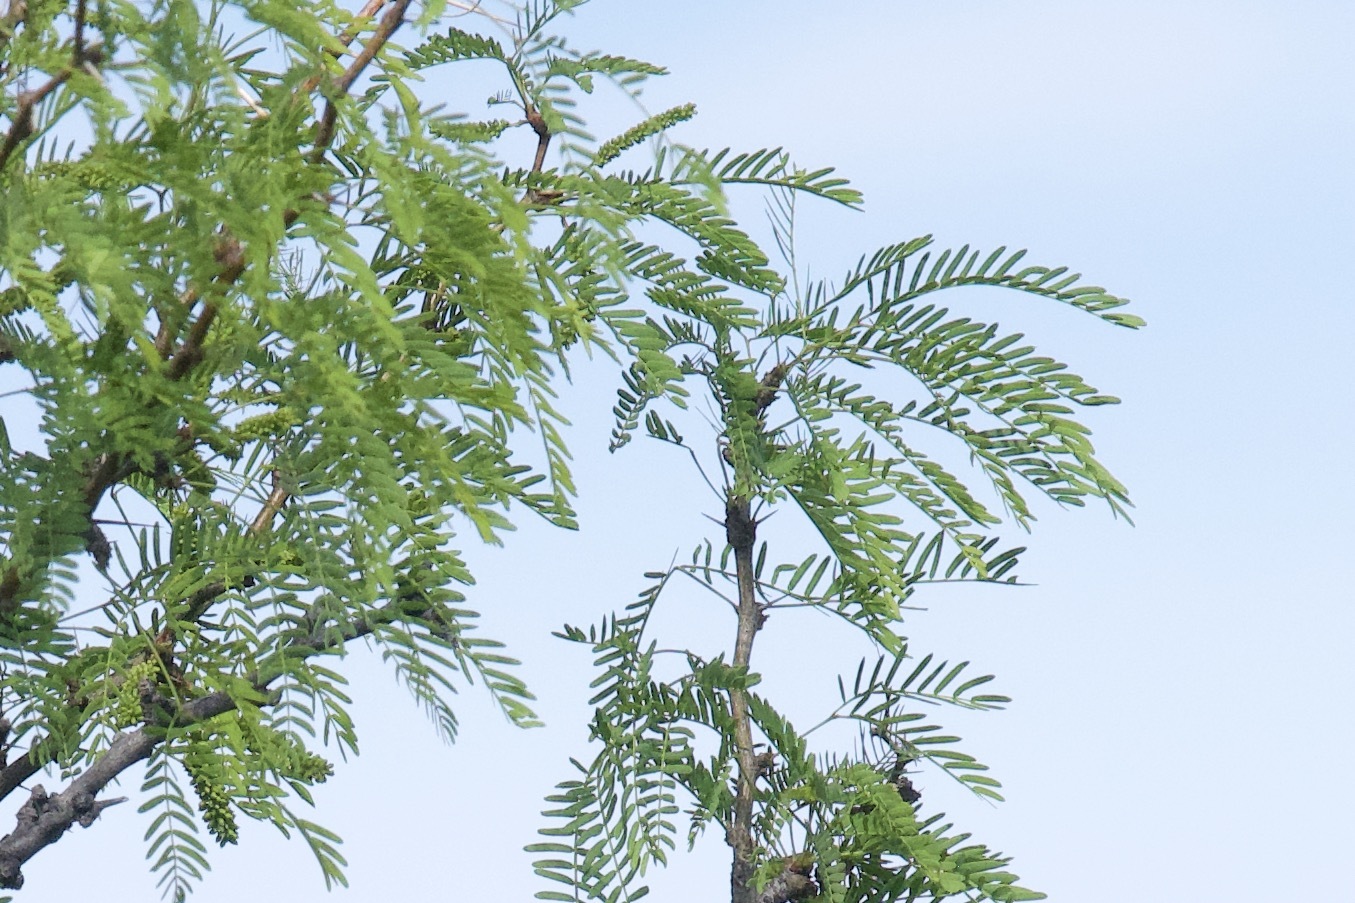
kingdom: Plantae
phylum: Tracheophyta
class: Magnoliopsida
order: Fabales
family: Fabaceae
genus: Prosopis
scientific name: Prosopis pubescens
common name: Screw-bean
